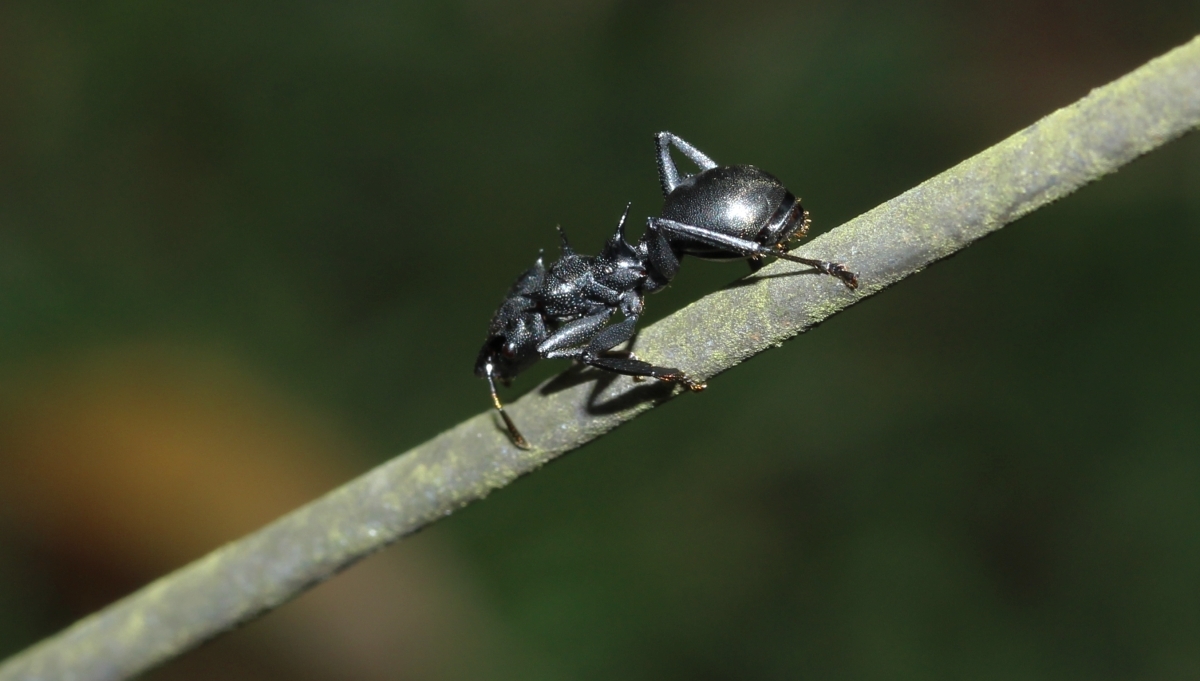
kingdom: Animalia
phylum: Arthropoda
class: Insecta
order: Hymenoptera
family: Formicidae
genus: Cephalotes
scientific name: Cephalotes atratus
